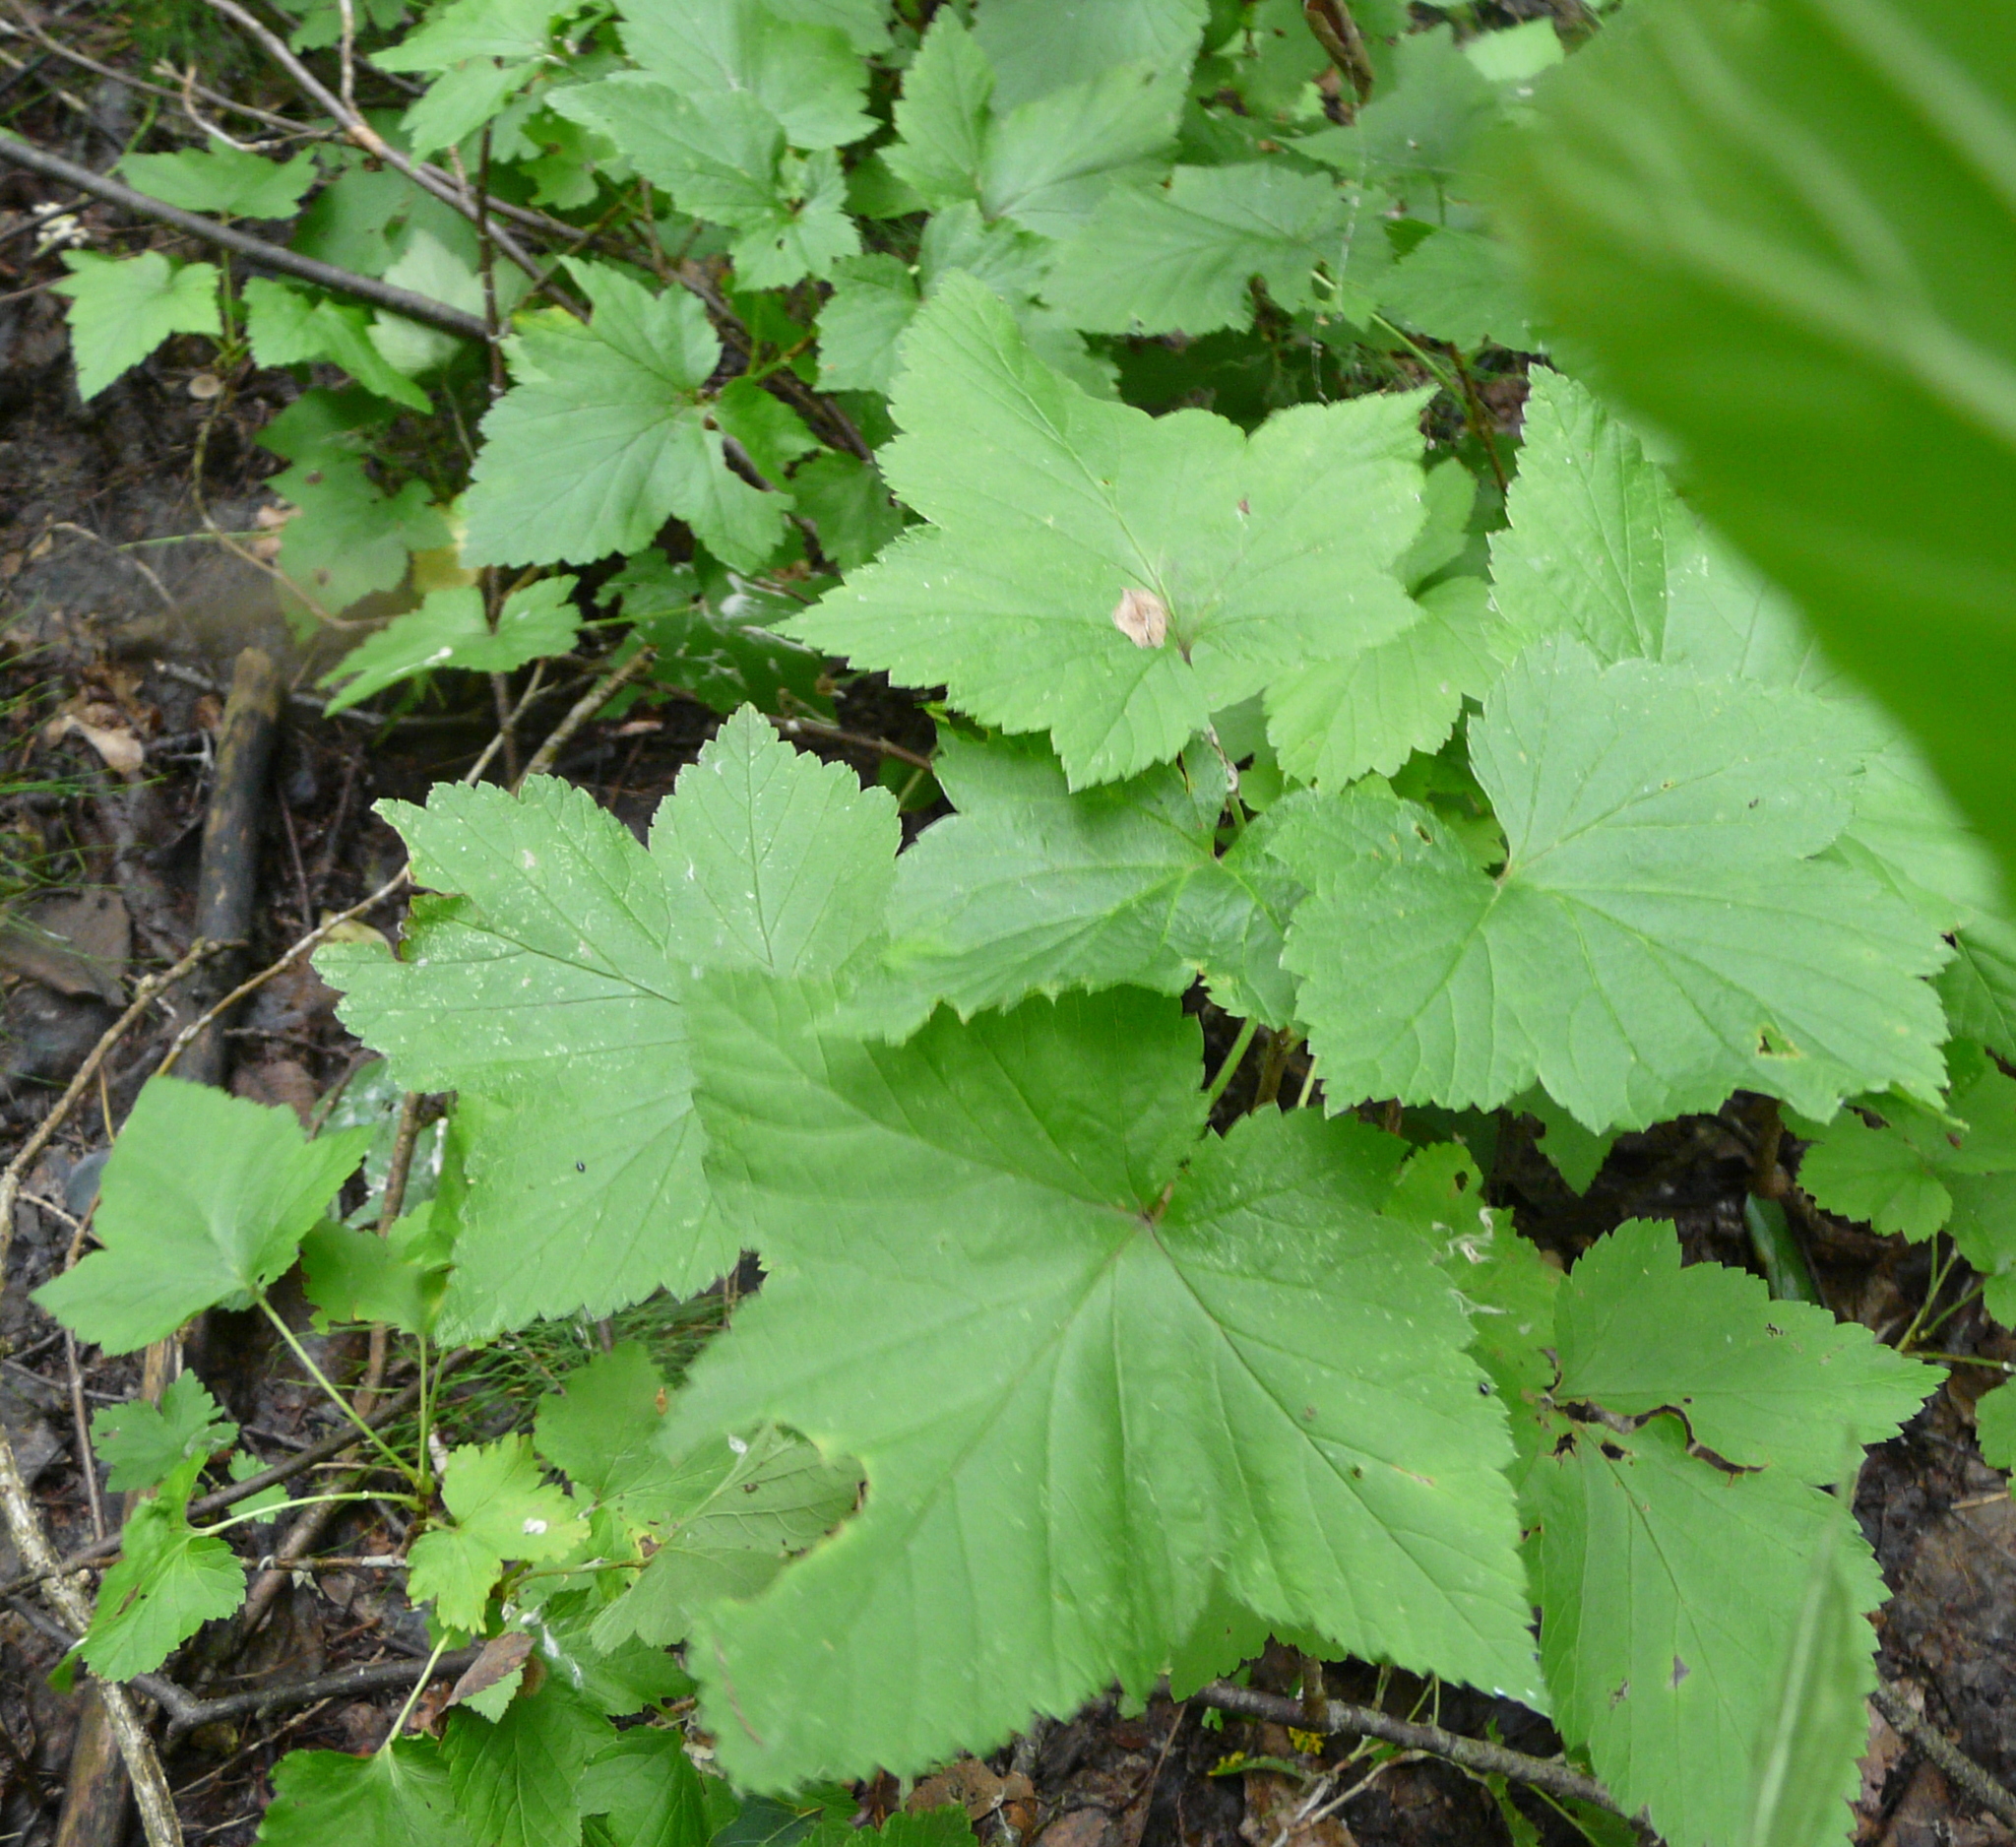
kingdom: Plantae
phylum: Tracheophyta
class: Magnoliopsida
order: Saxifragales
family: Grossulariaceae
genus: Ribes
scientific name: Ribes nigrum
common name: Black currant
